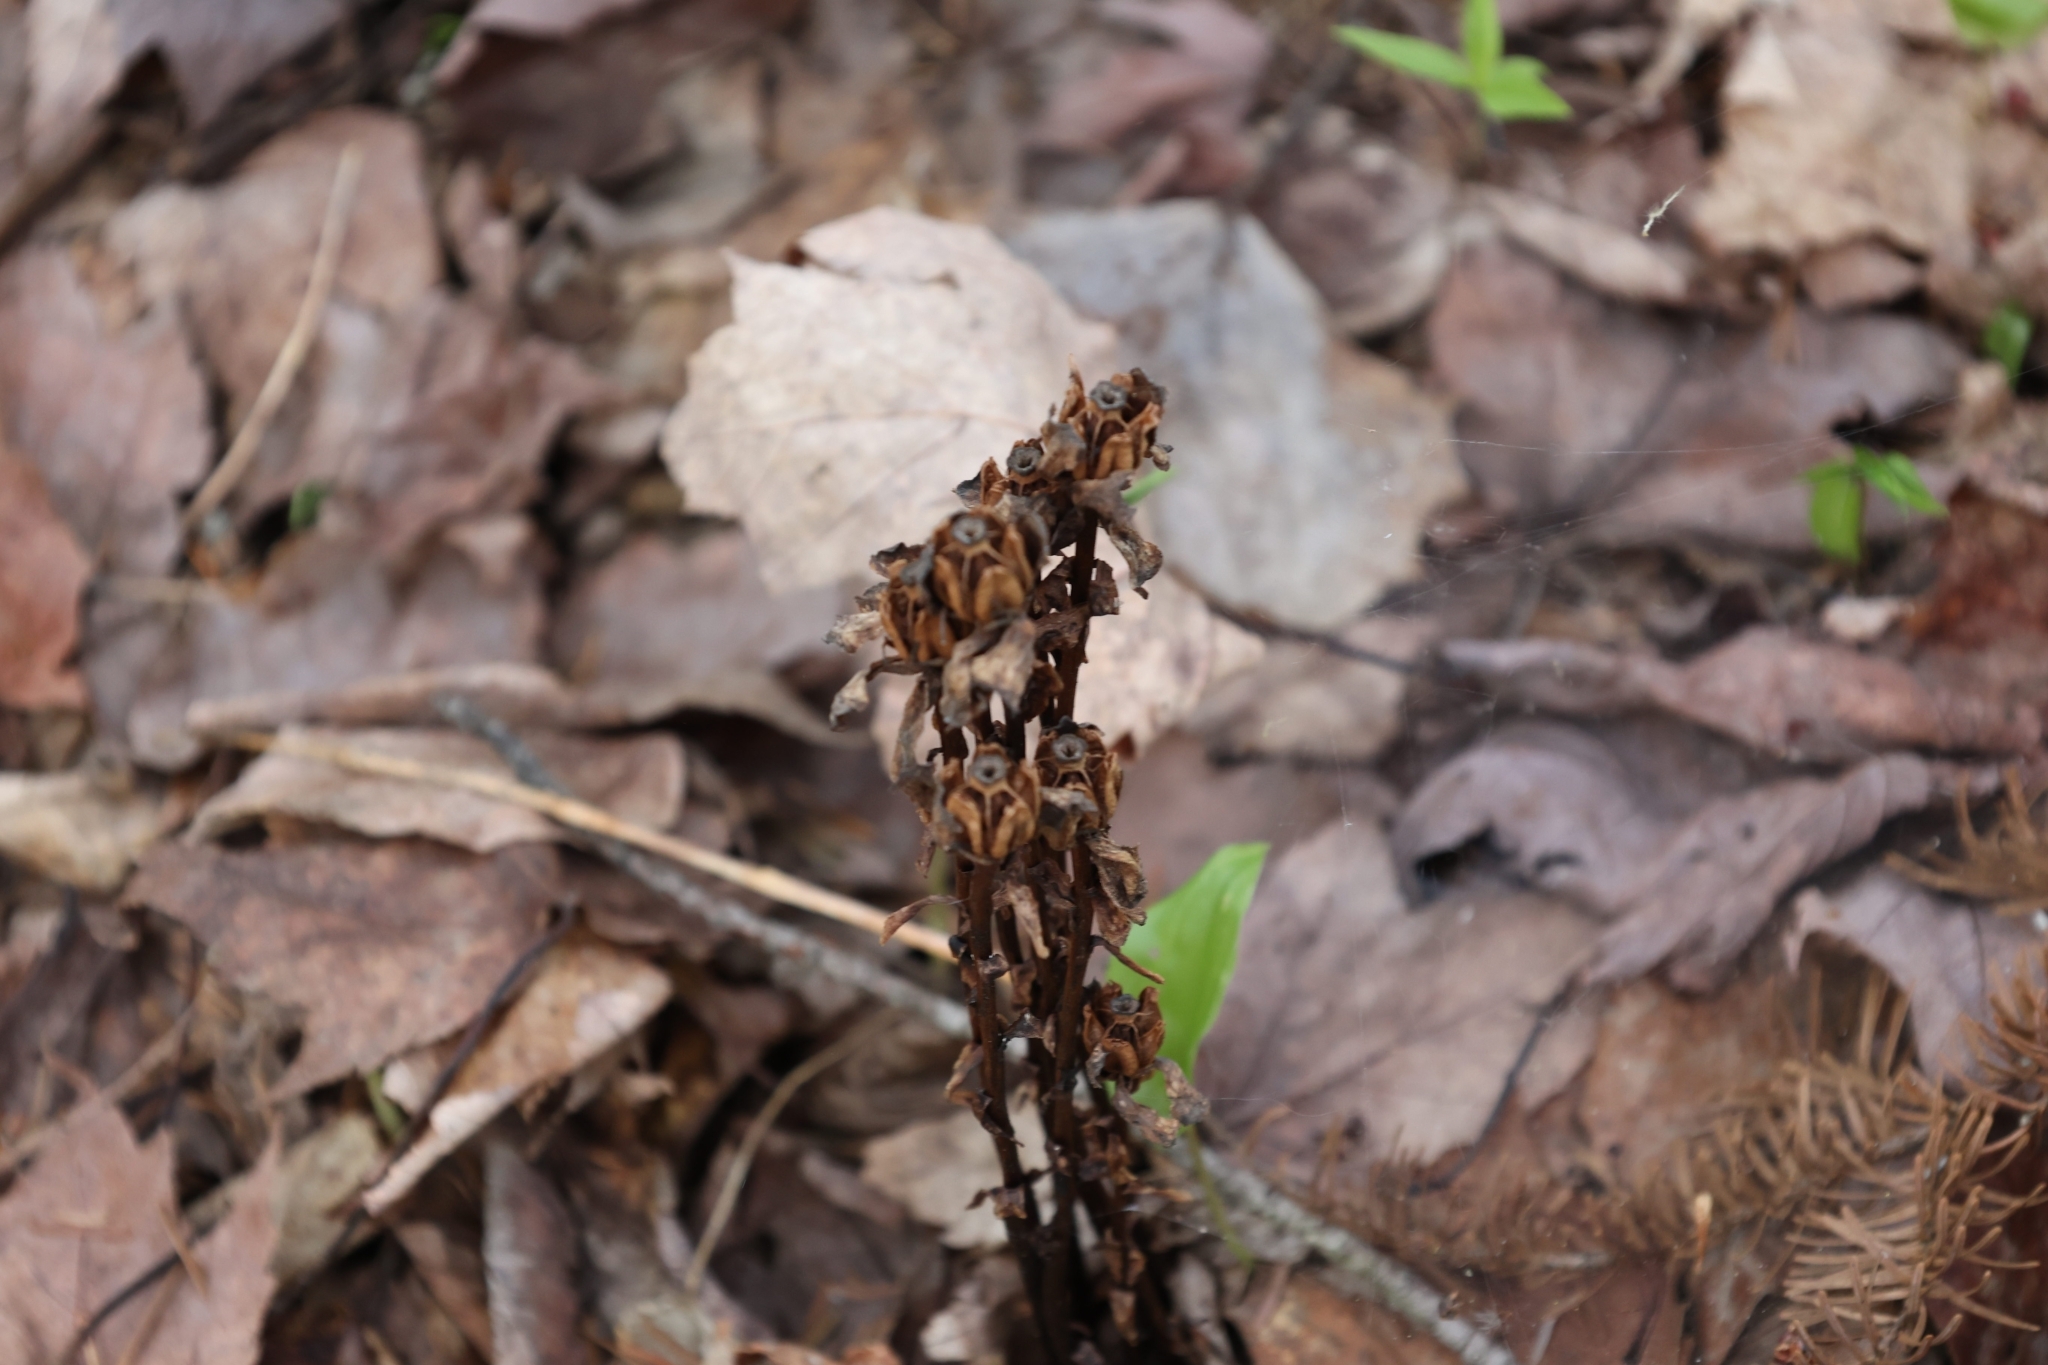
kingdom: Plantae
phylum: Tracheophyta
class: Magnoliopsida
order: Ericales
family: Ericaceae
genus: Monotropa
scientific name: Monotropa uniflora
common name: Convulsion root
